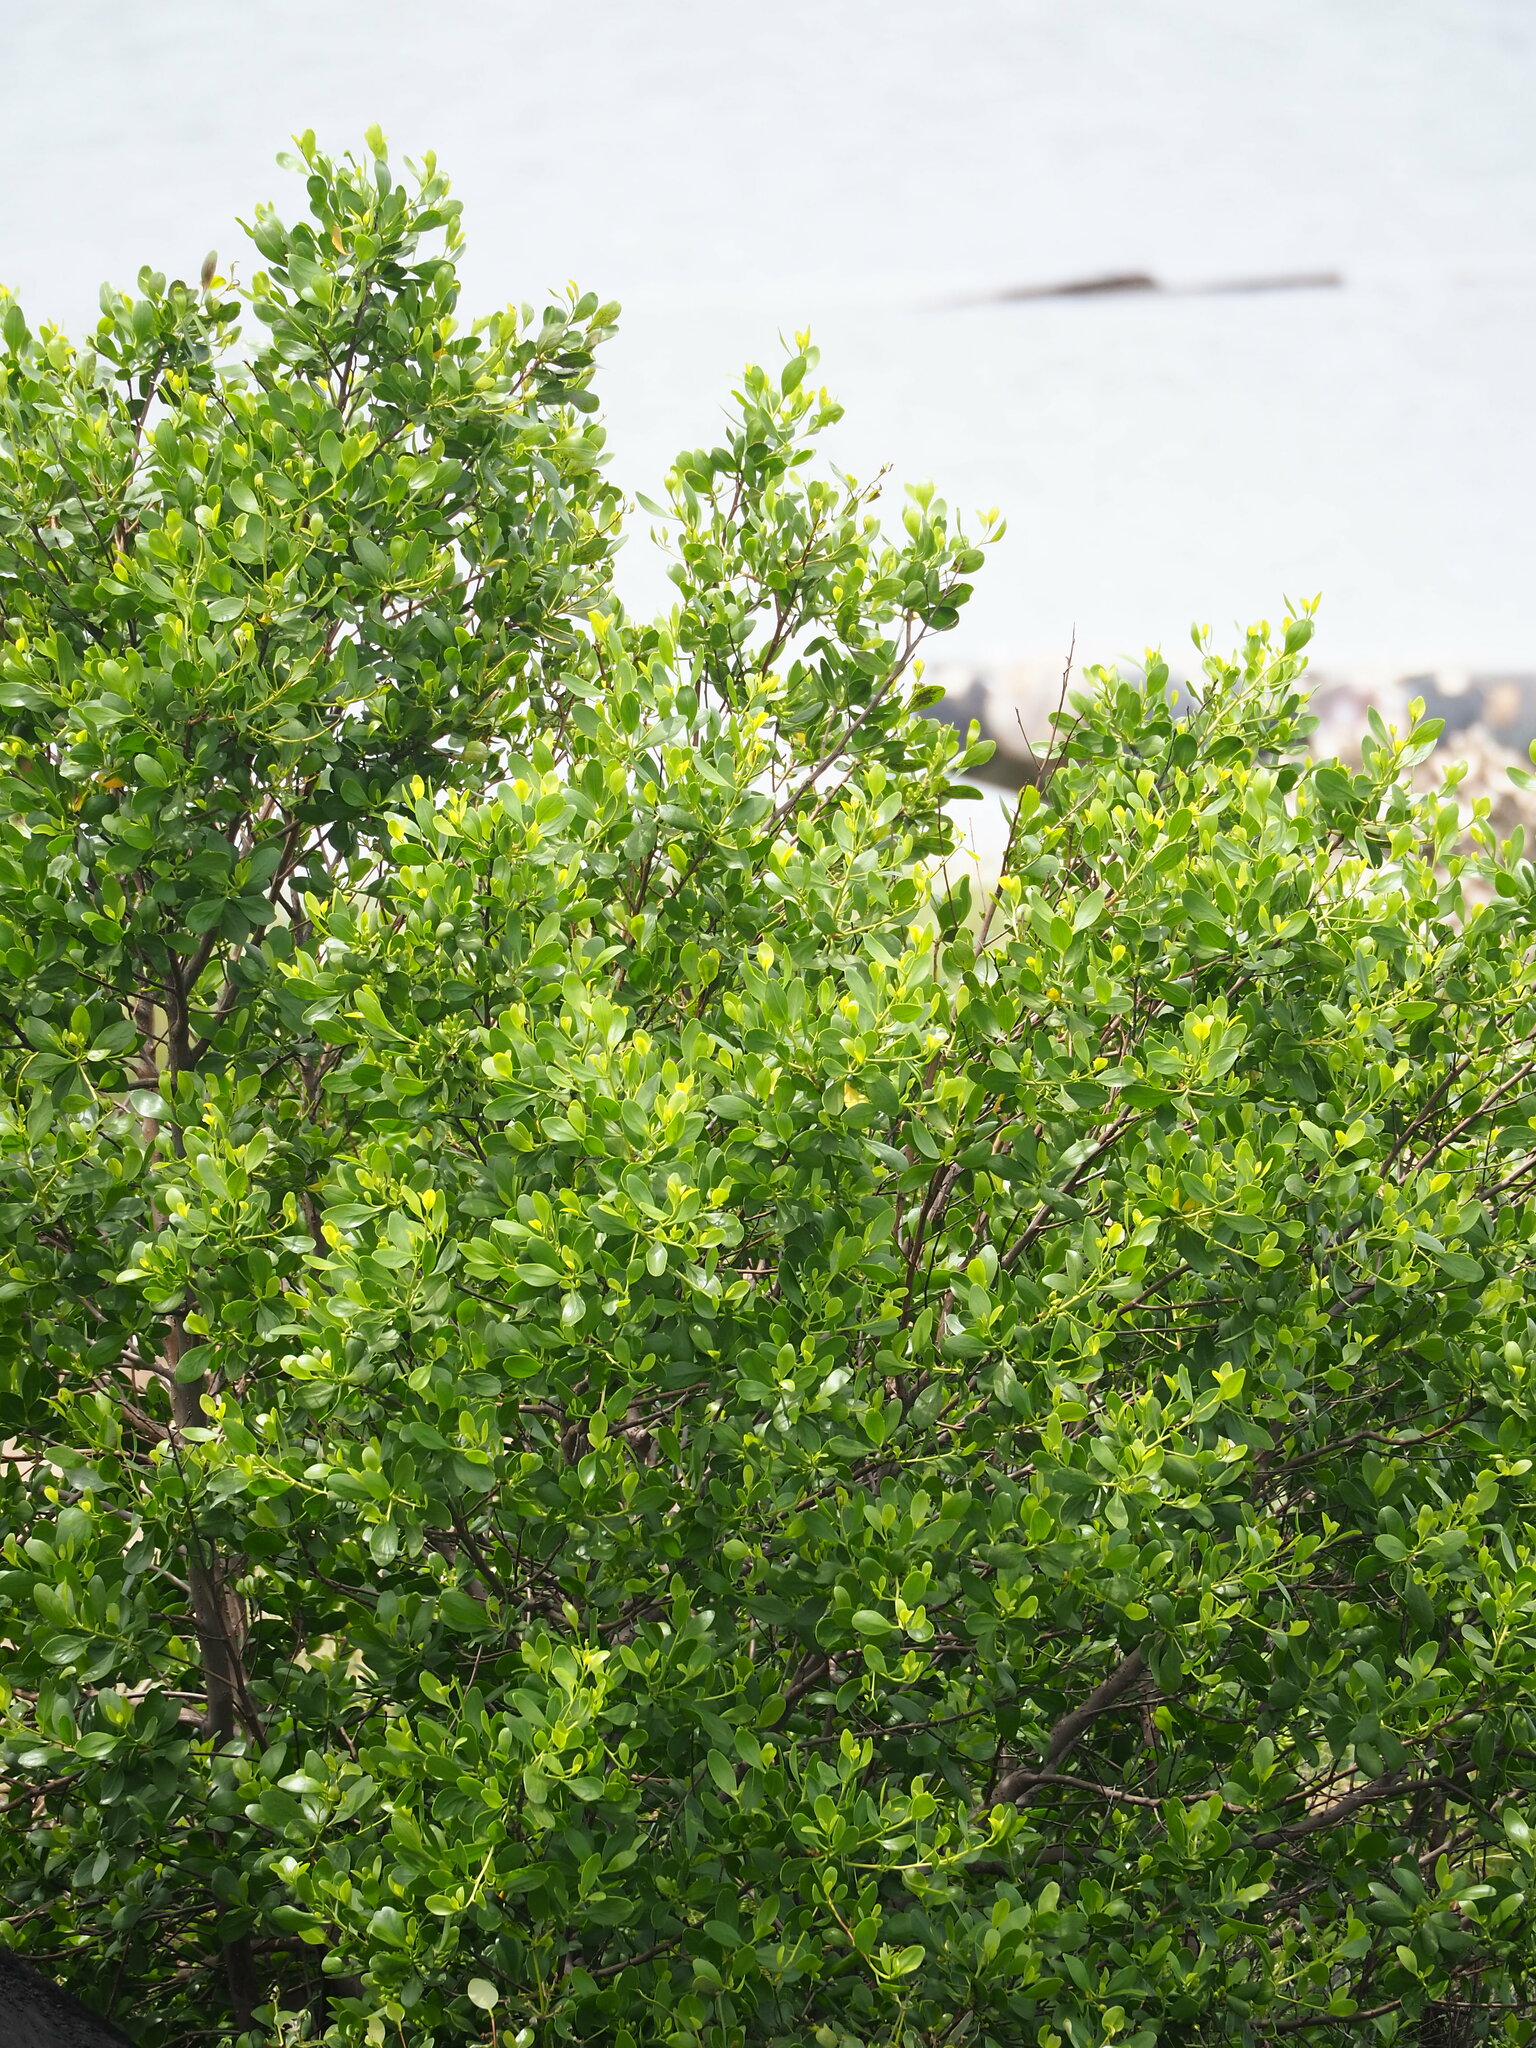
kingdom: Plantae
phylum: Tracheophyta
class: Magnoliopsida
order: Myrtales
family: Combretaceae
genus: Lumnitzera
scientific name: Lumnitzera racemosa
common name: White-flowered black mangrove
